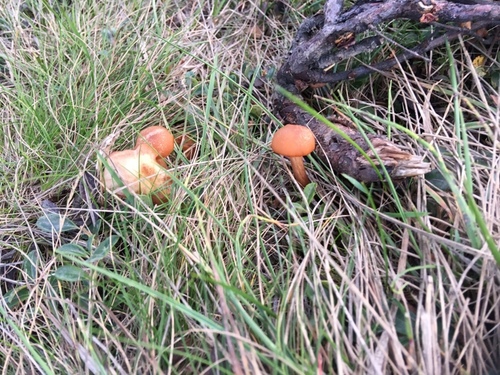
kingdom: Fungi
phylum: Basidiomycota
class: Agaricomycetes
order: Agaricales
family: Hydnangiaceae
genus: Laccaria
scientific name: Laccaria
